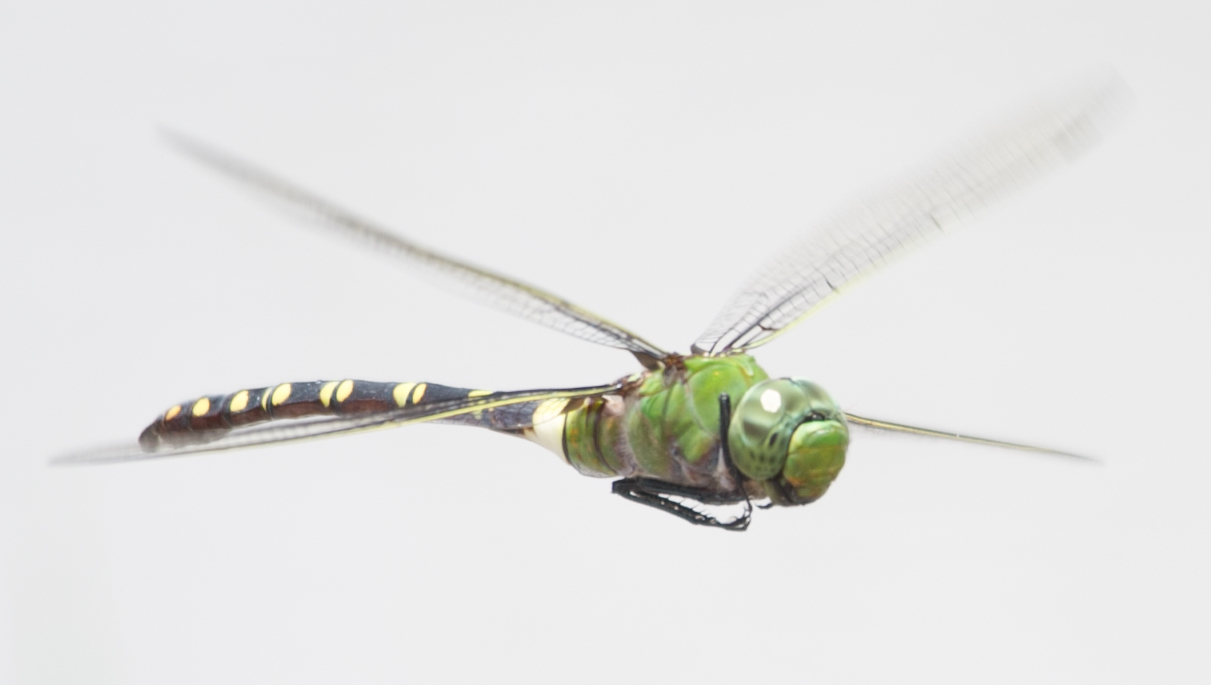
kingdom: Animalia
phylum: Arthropoda
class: Insecta
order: Odonata
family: Aeshnidae
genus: Anax
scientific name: Anax tristis
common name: Black emperor
